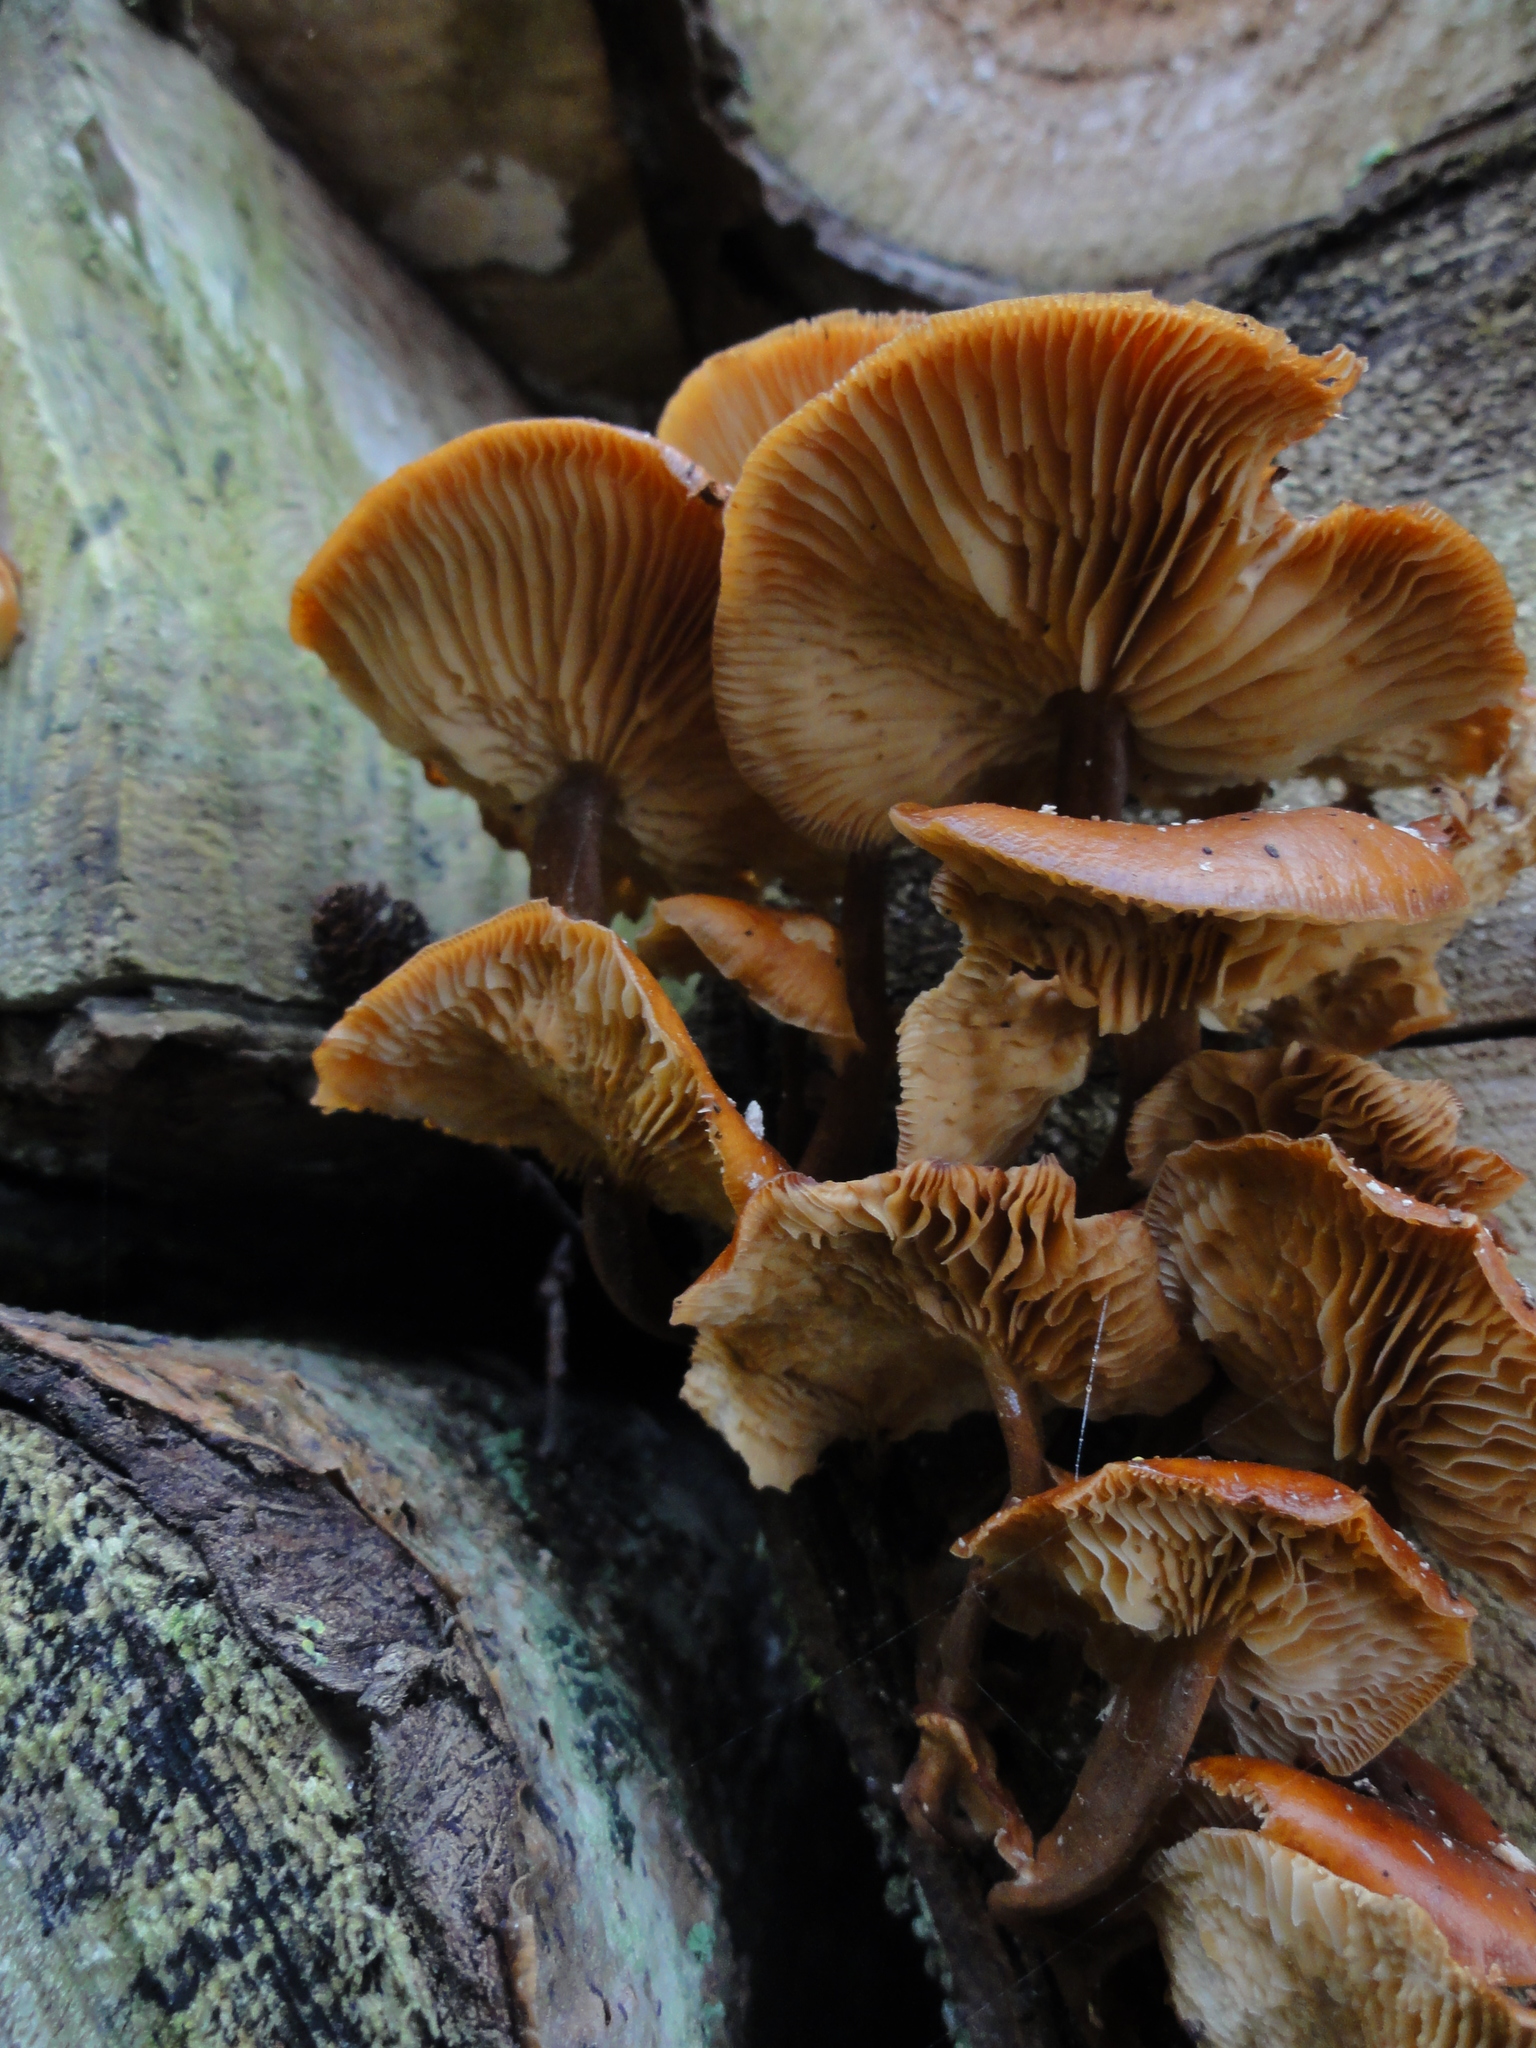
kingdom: Fungi
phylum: Basidiomycota
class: Agaricomycetes
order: Agaricales
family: Physalacriaceae
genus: Flammulina
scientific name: Flammulina
